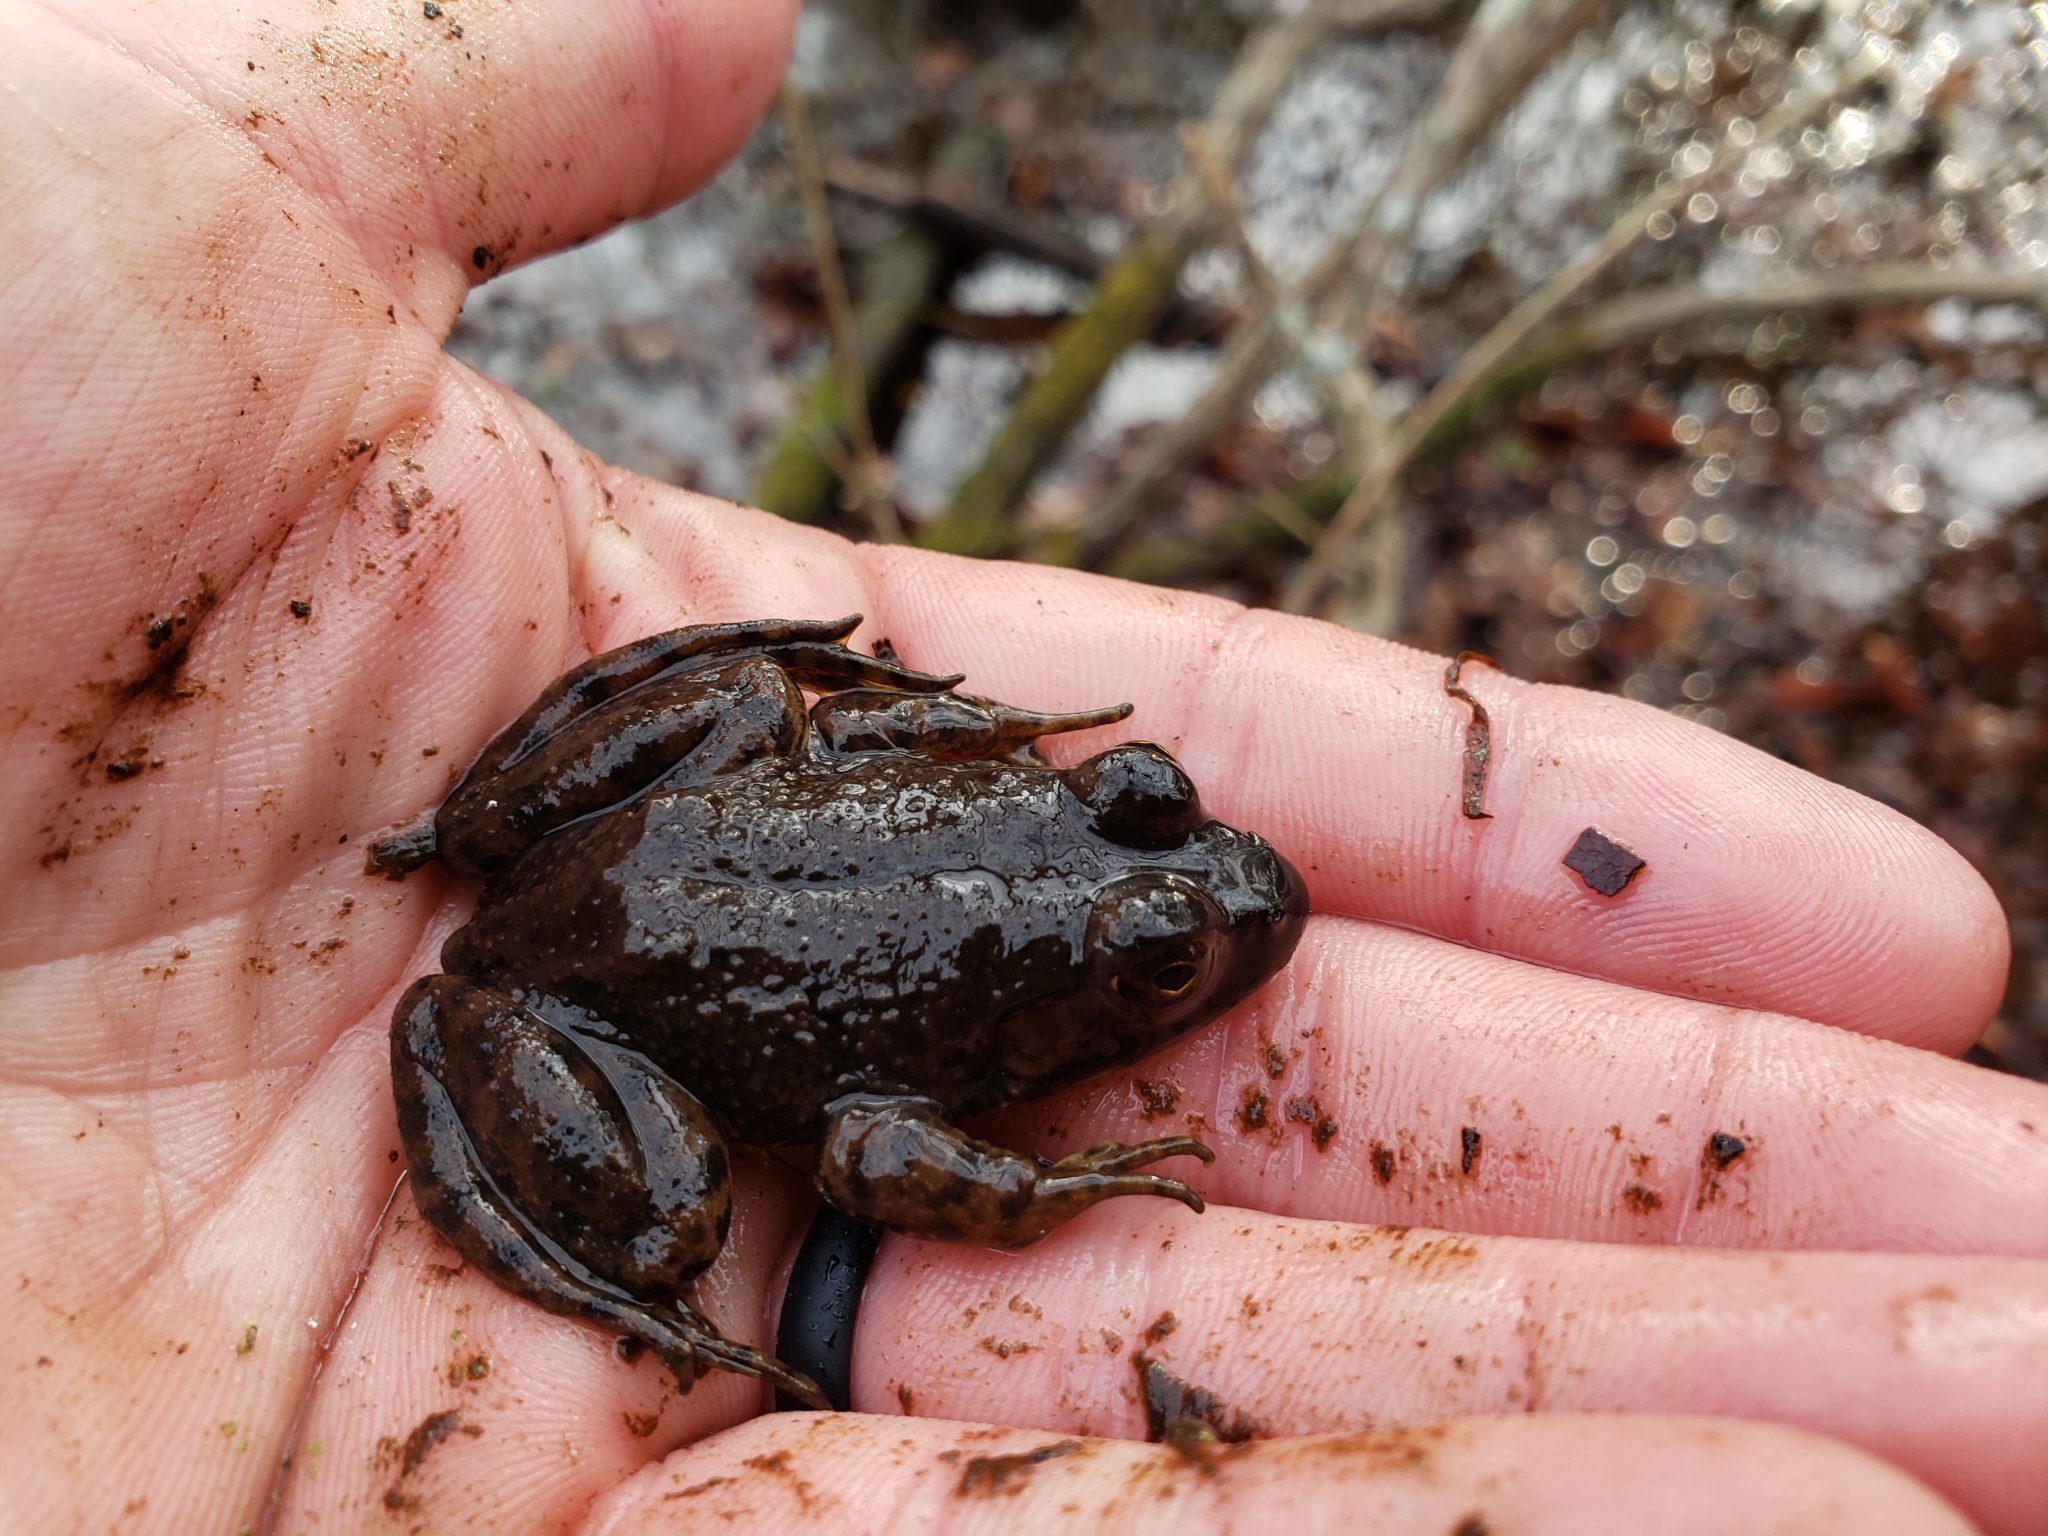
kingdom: Animalia
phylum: Chordata
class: Amphibia
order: Anura
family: Ranidae
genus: Lithobates
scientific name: Lithobates catesbeianus
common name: American bullfrog
